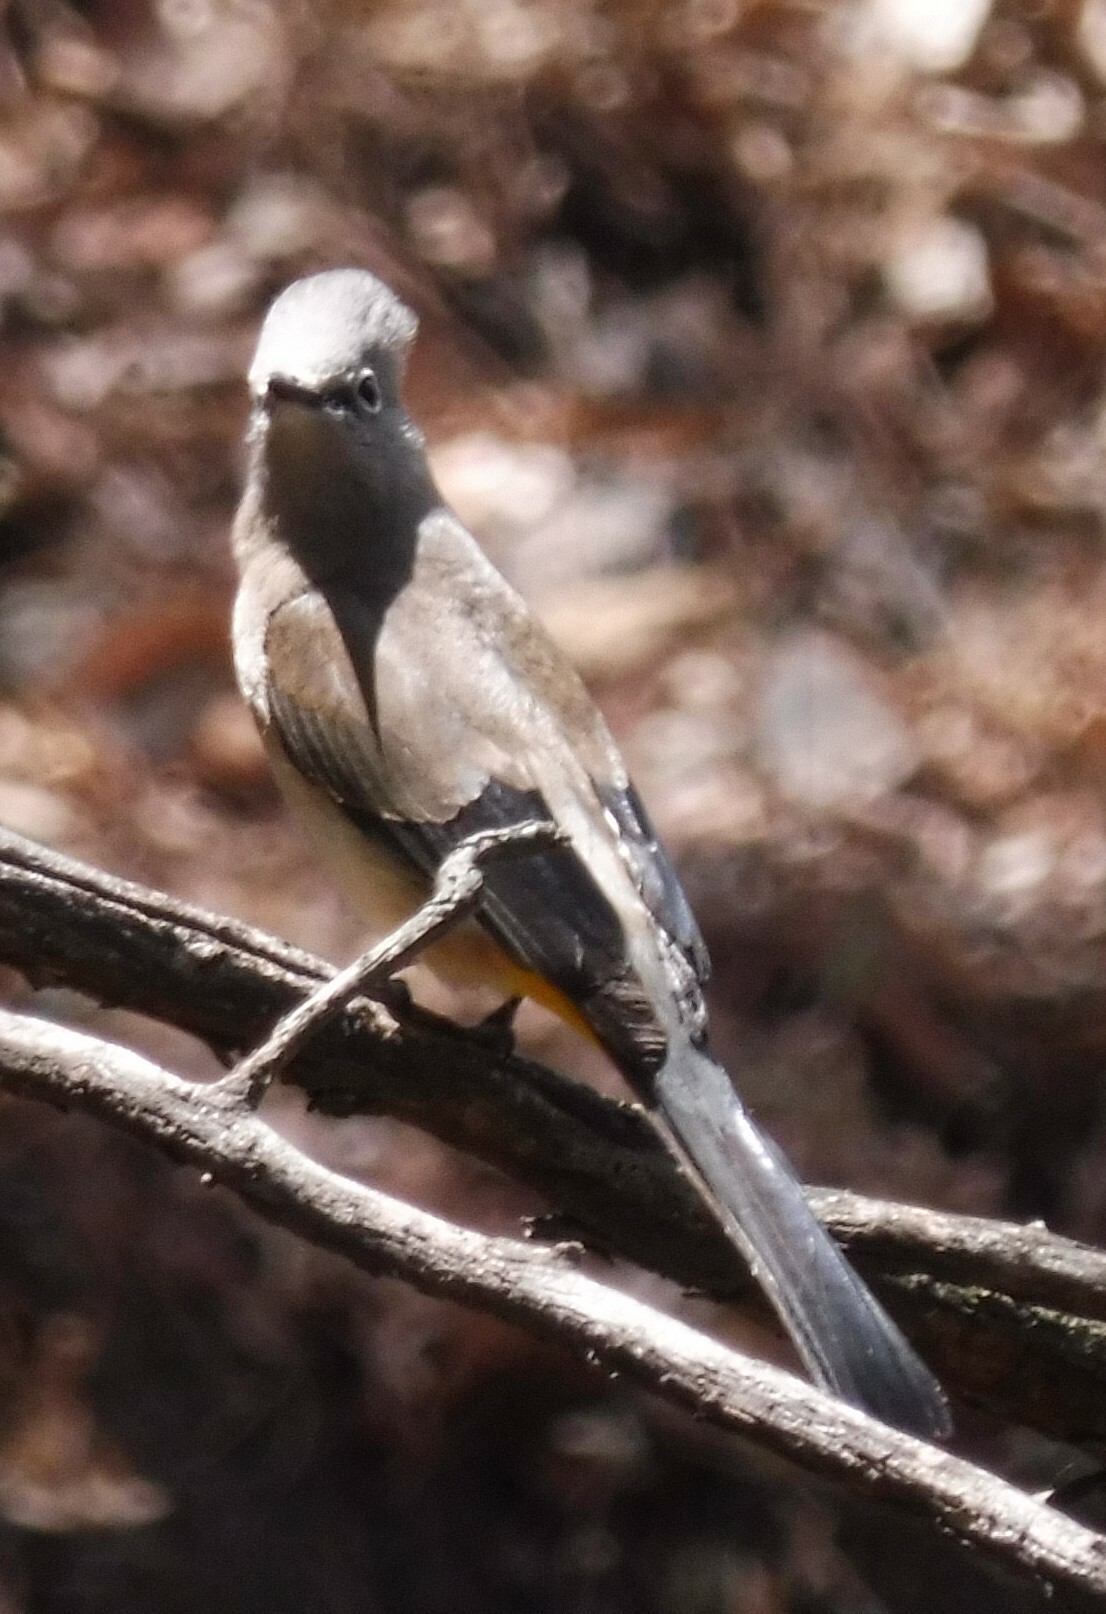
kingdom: Animalia
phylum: Chordata
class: Aves
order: Passeriformes
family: Ptilogonatidae
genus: Ptilogonys
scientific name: Ptilogonys cinereus
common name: Gray silky-flycatcher
